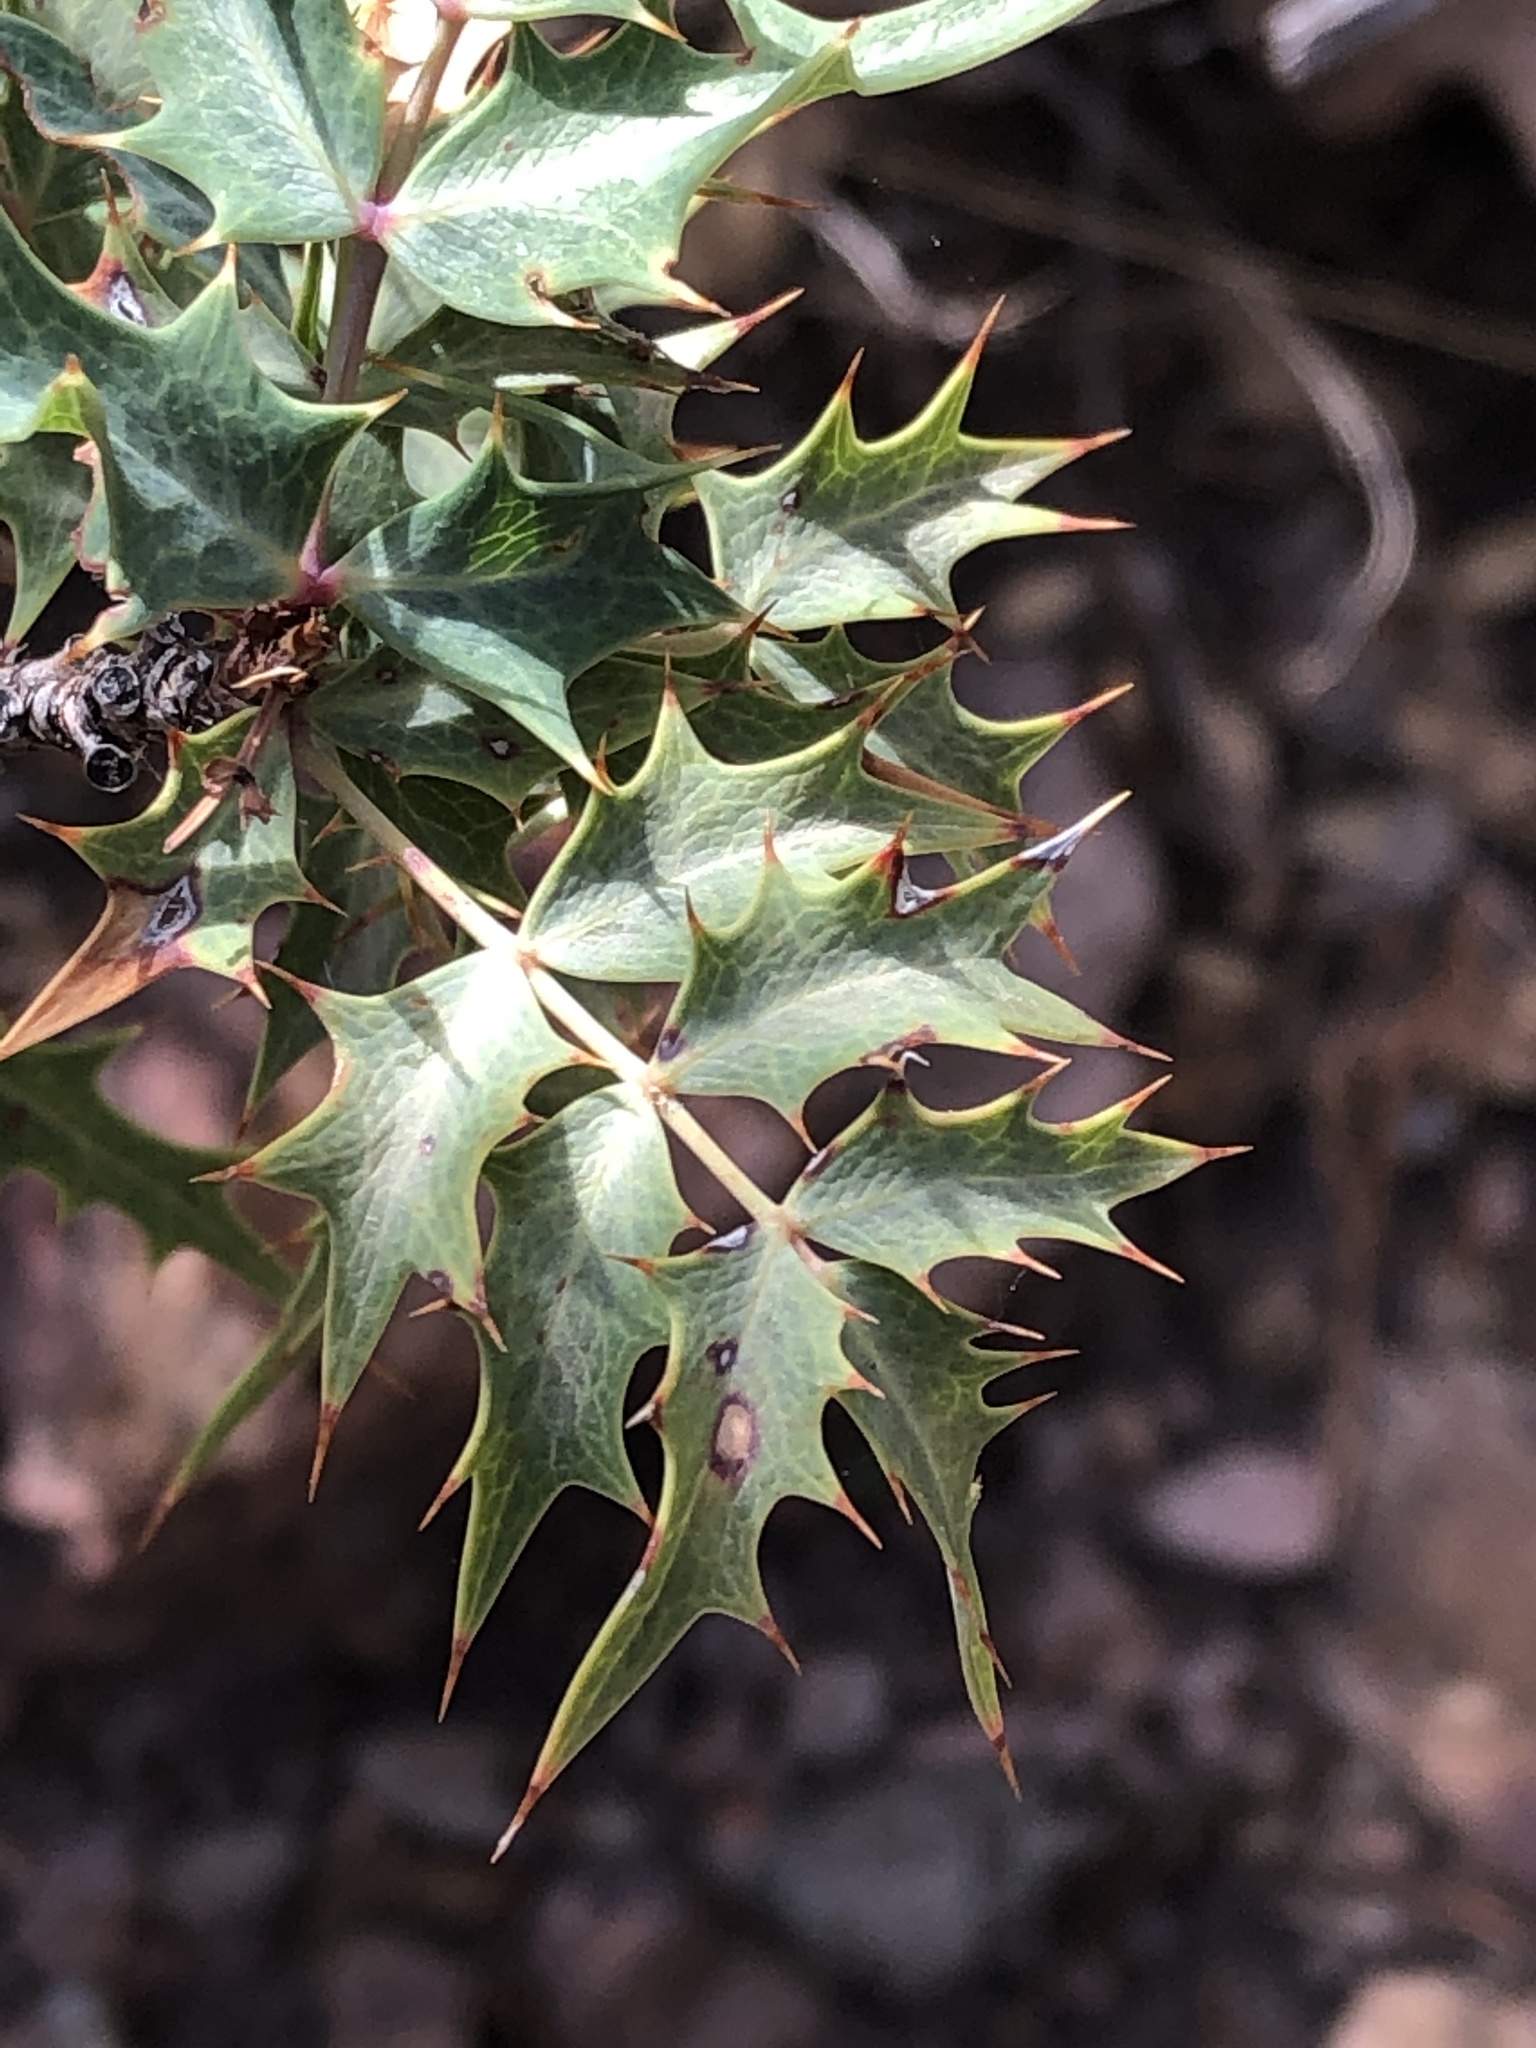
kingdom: Plantae
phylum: Tracheophyta
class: Magnoliopsida
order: Ranunculales
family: Berberidaceae
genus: Alloberberis
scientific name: Alloberberis haematocarpa
